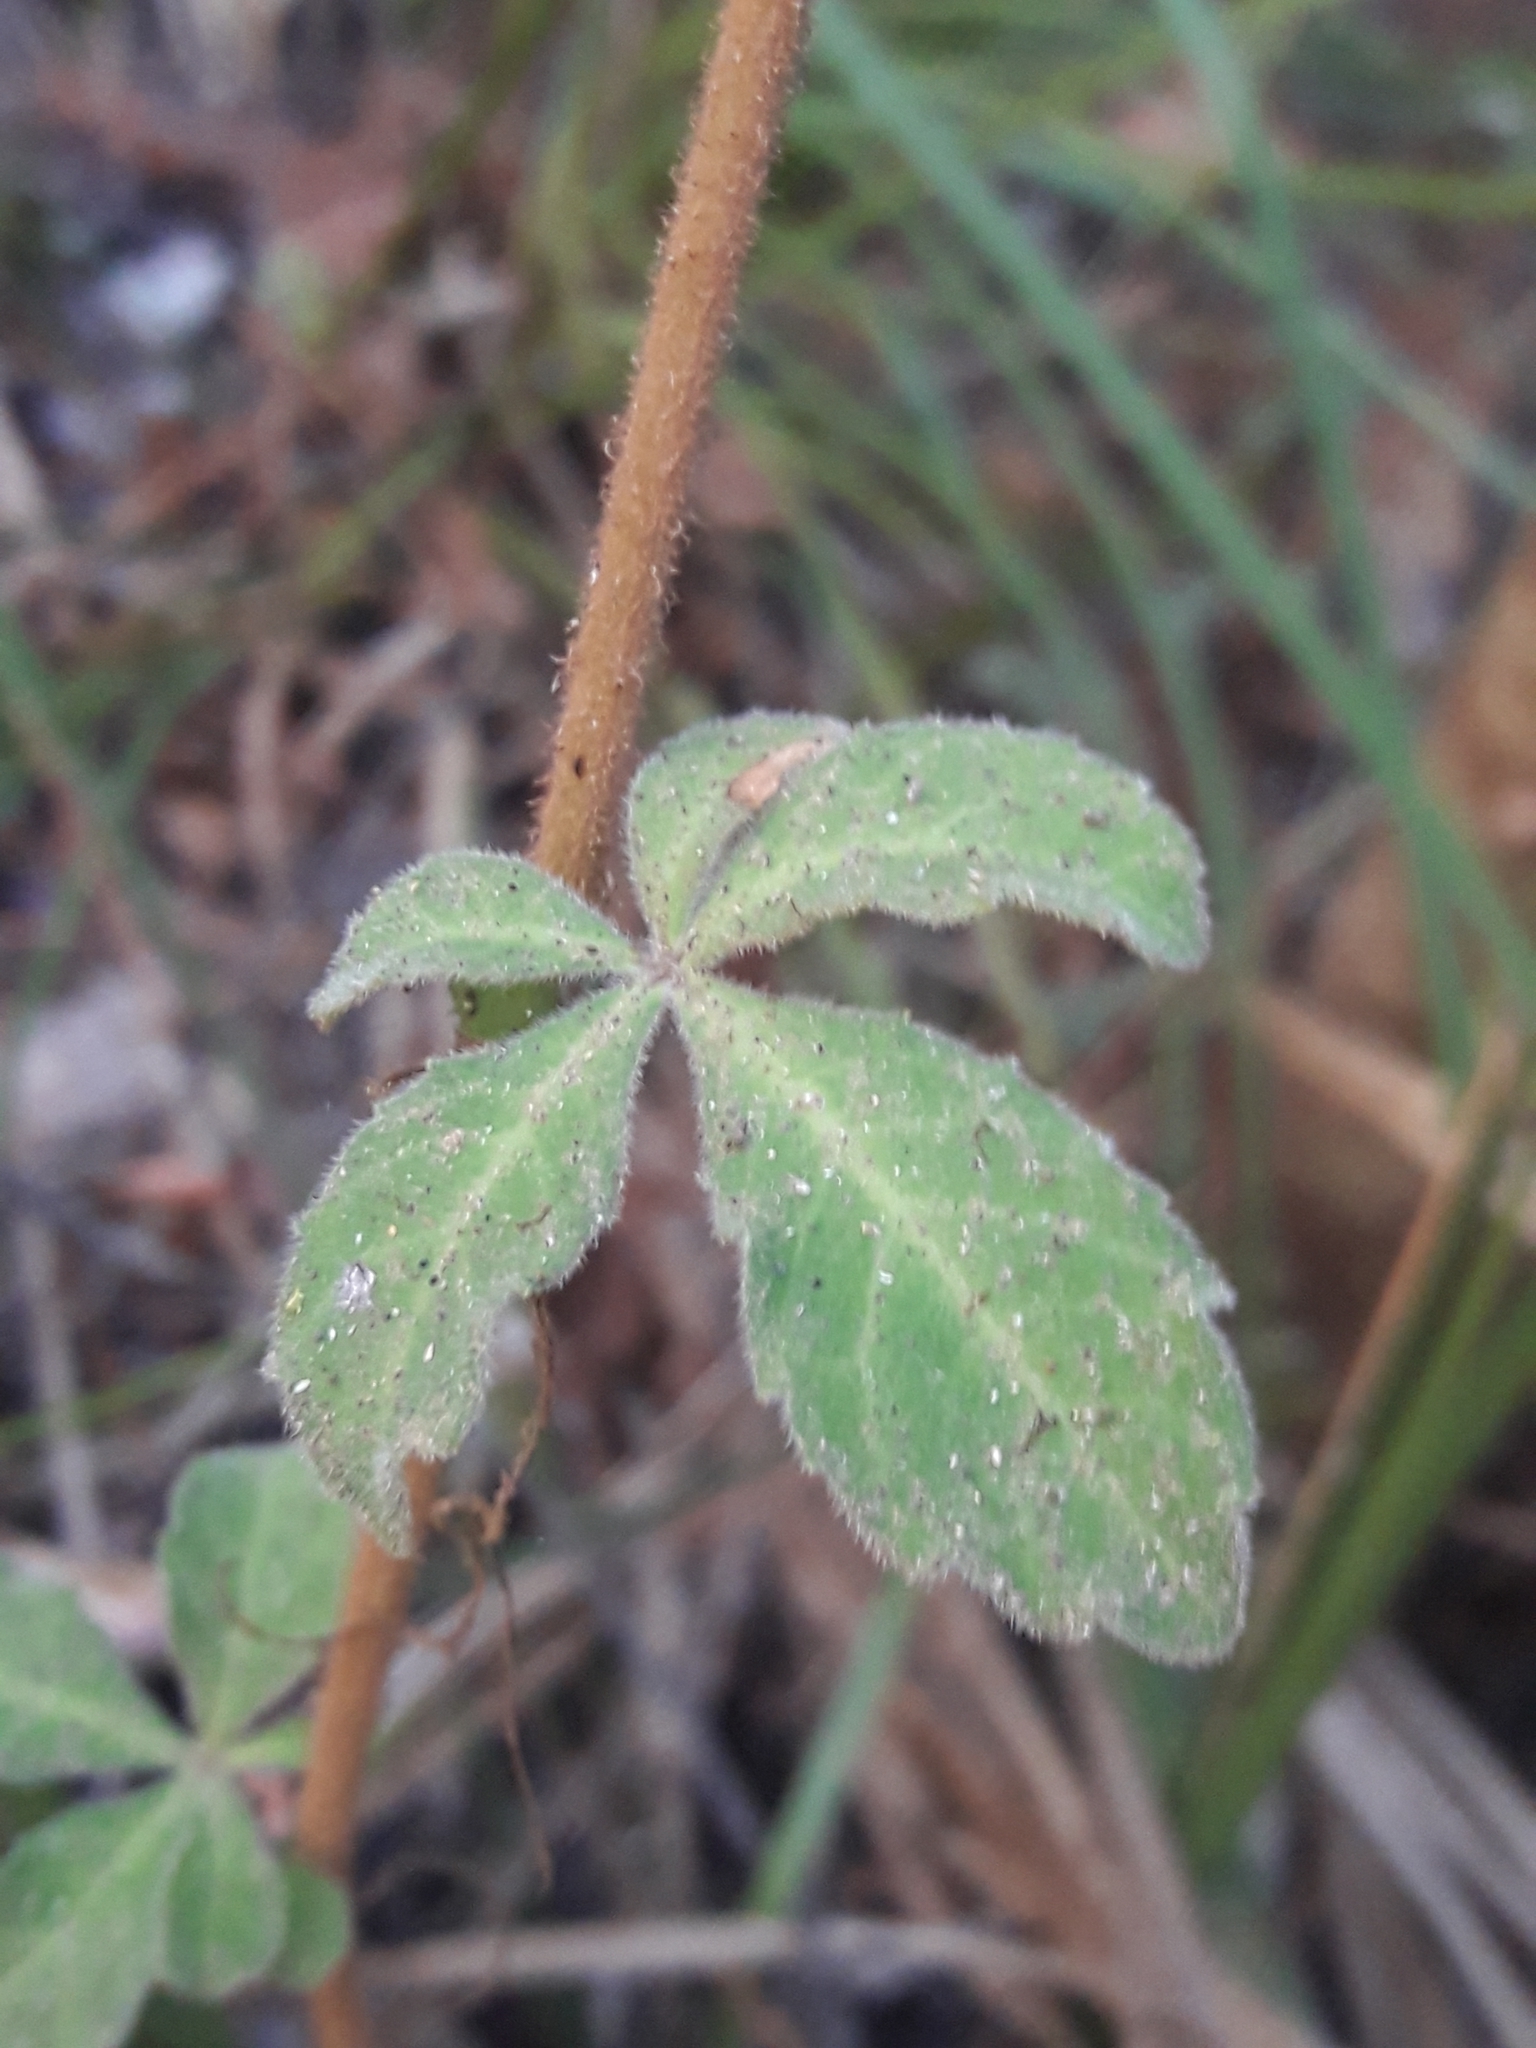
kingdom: Plantae
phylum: Tracheophyta
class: Magnoliopsida
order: Vitales
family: Vitaceae
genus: Clematicissus
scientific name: Clematicissus striata
